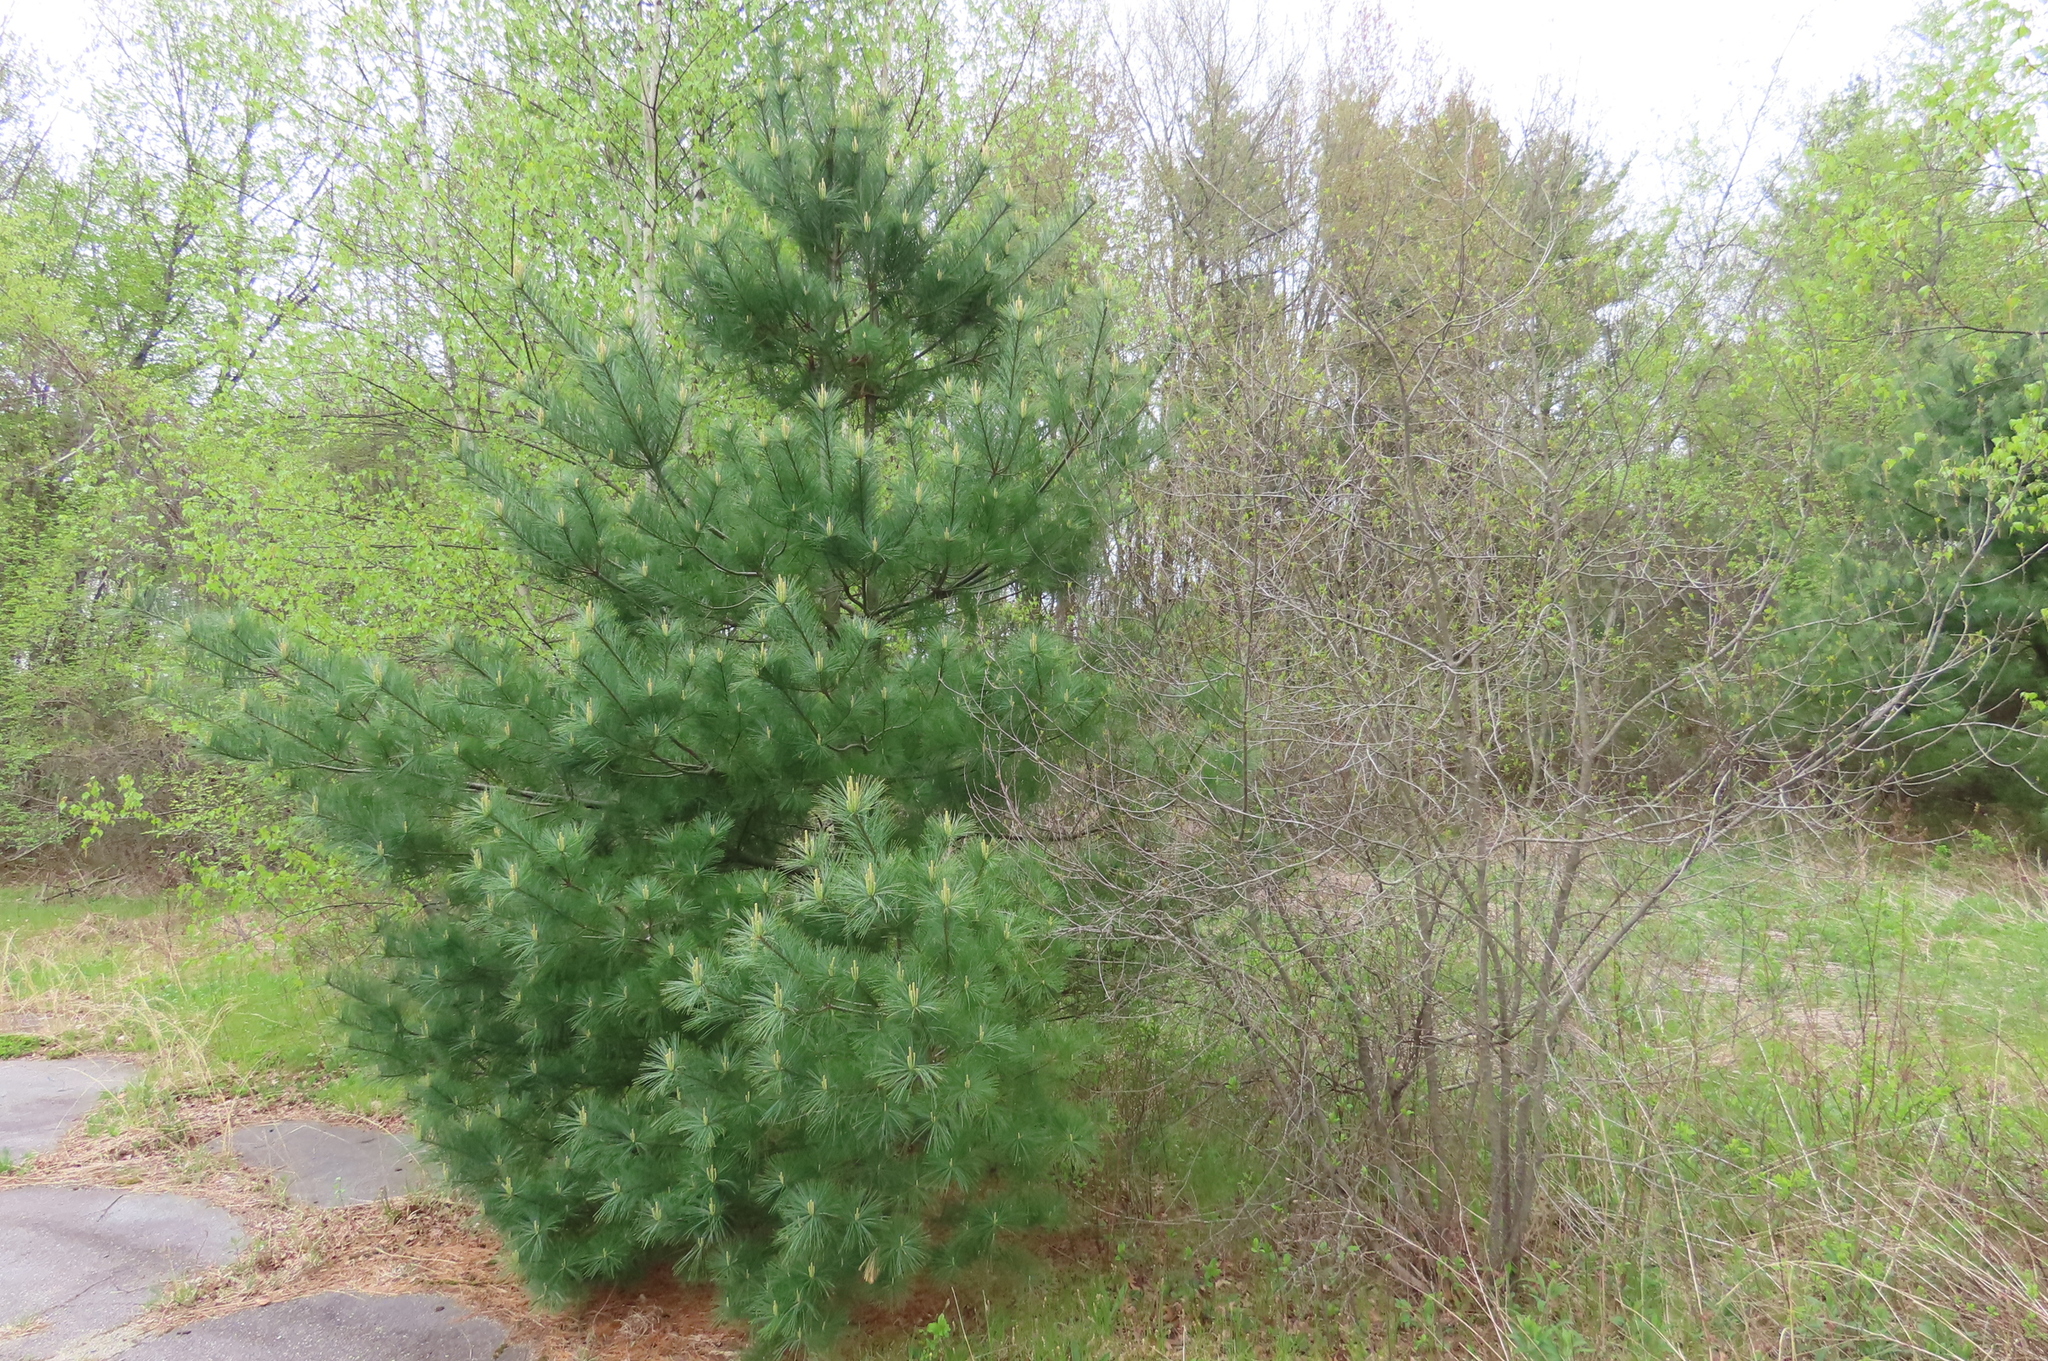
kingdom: Plantae
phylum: Tracheophyta
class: Pinopsida
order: Pinales
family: Pinaceae
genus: Pinus
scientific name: Pinus strobus
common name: Weymouth pine
